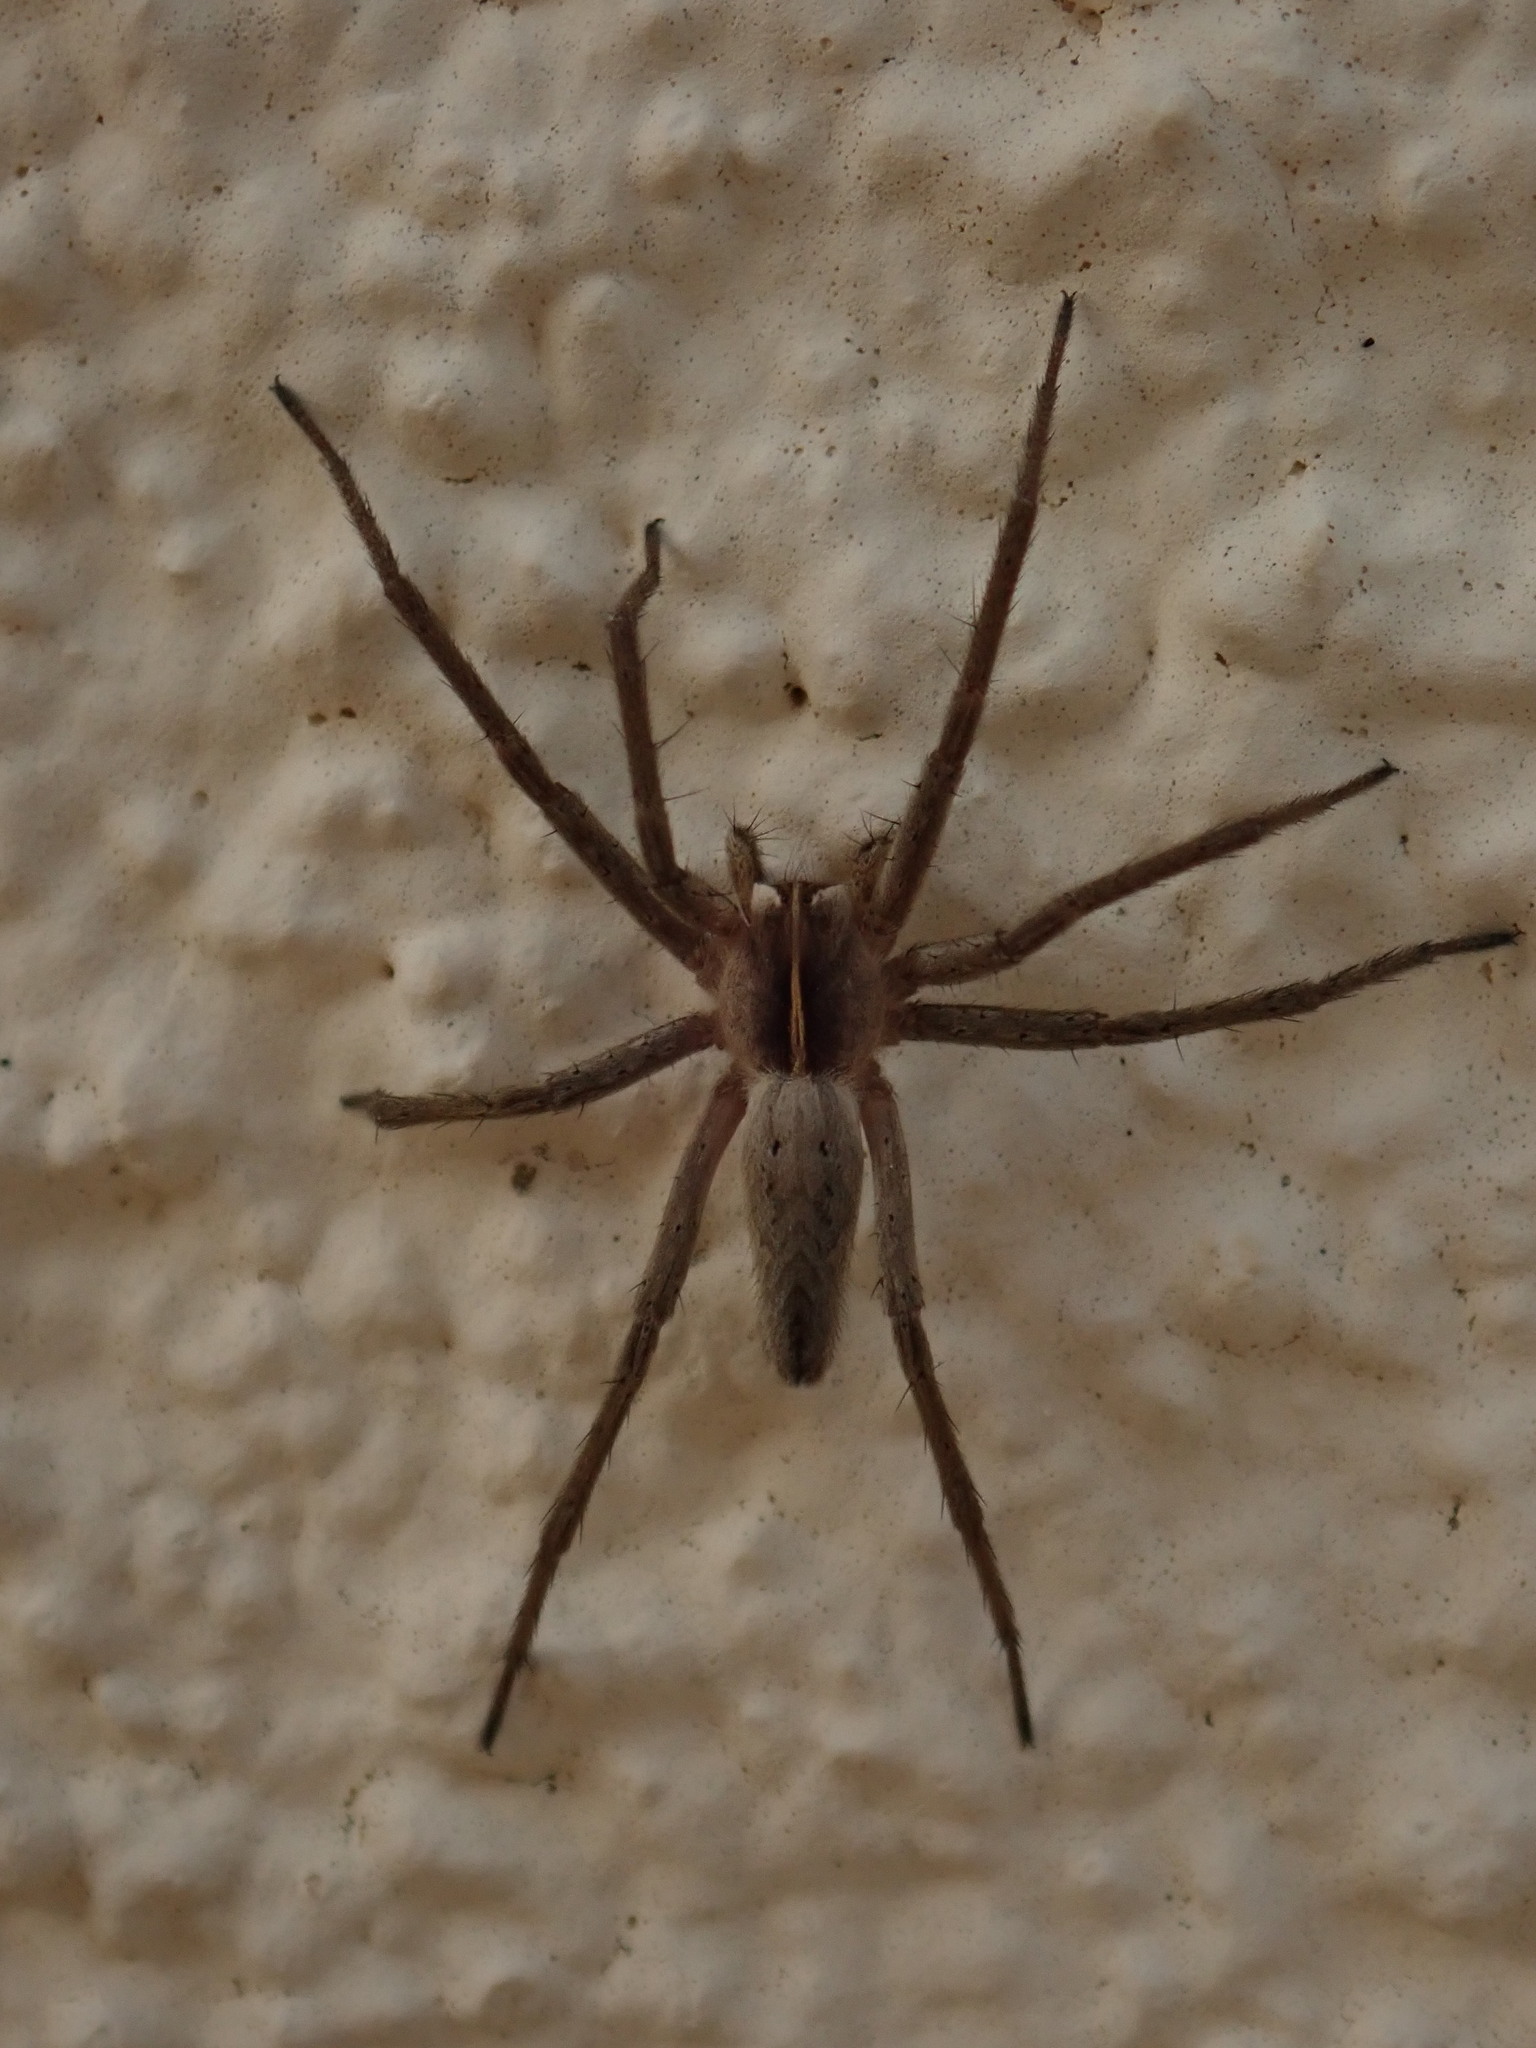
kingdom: Animalia
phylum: Arthropoda
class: Arachnida
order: Araneae
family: Pisauridae
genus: Pisaura
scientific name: Pisaura mirabilis
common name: Tent spider
